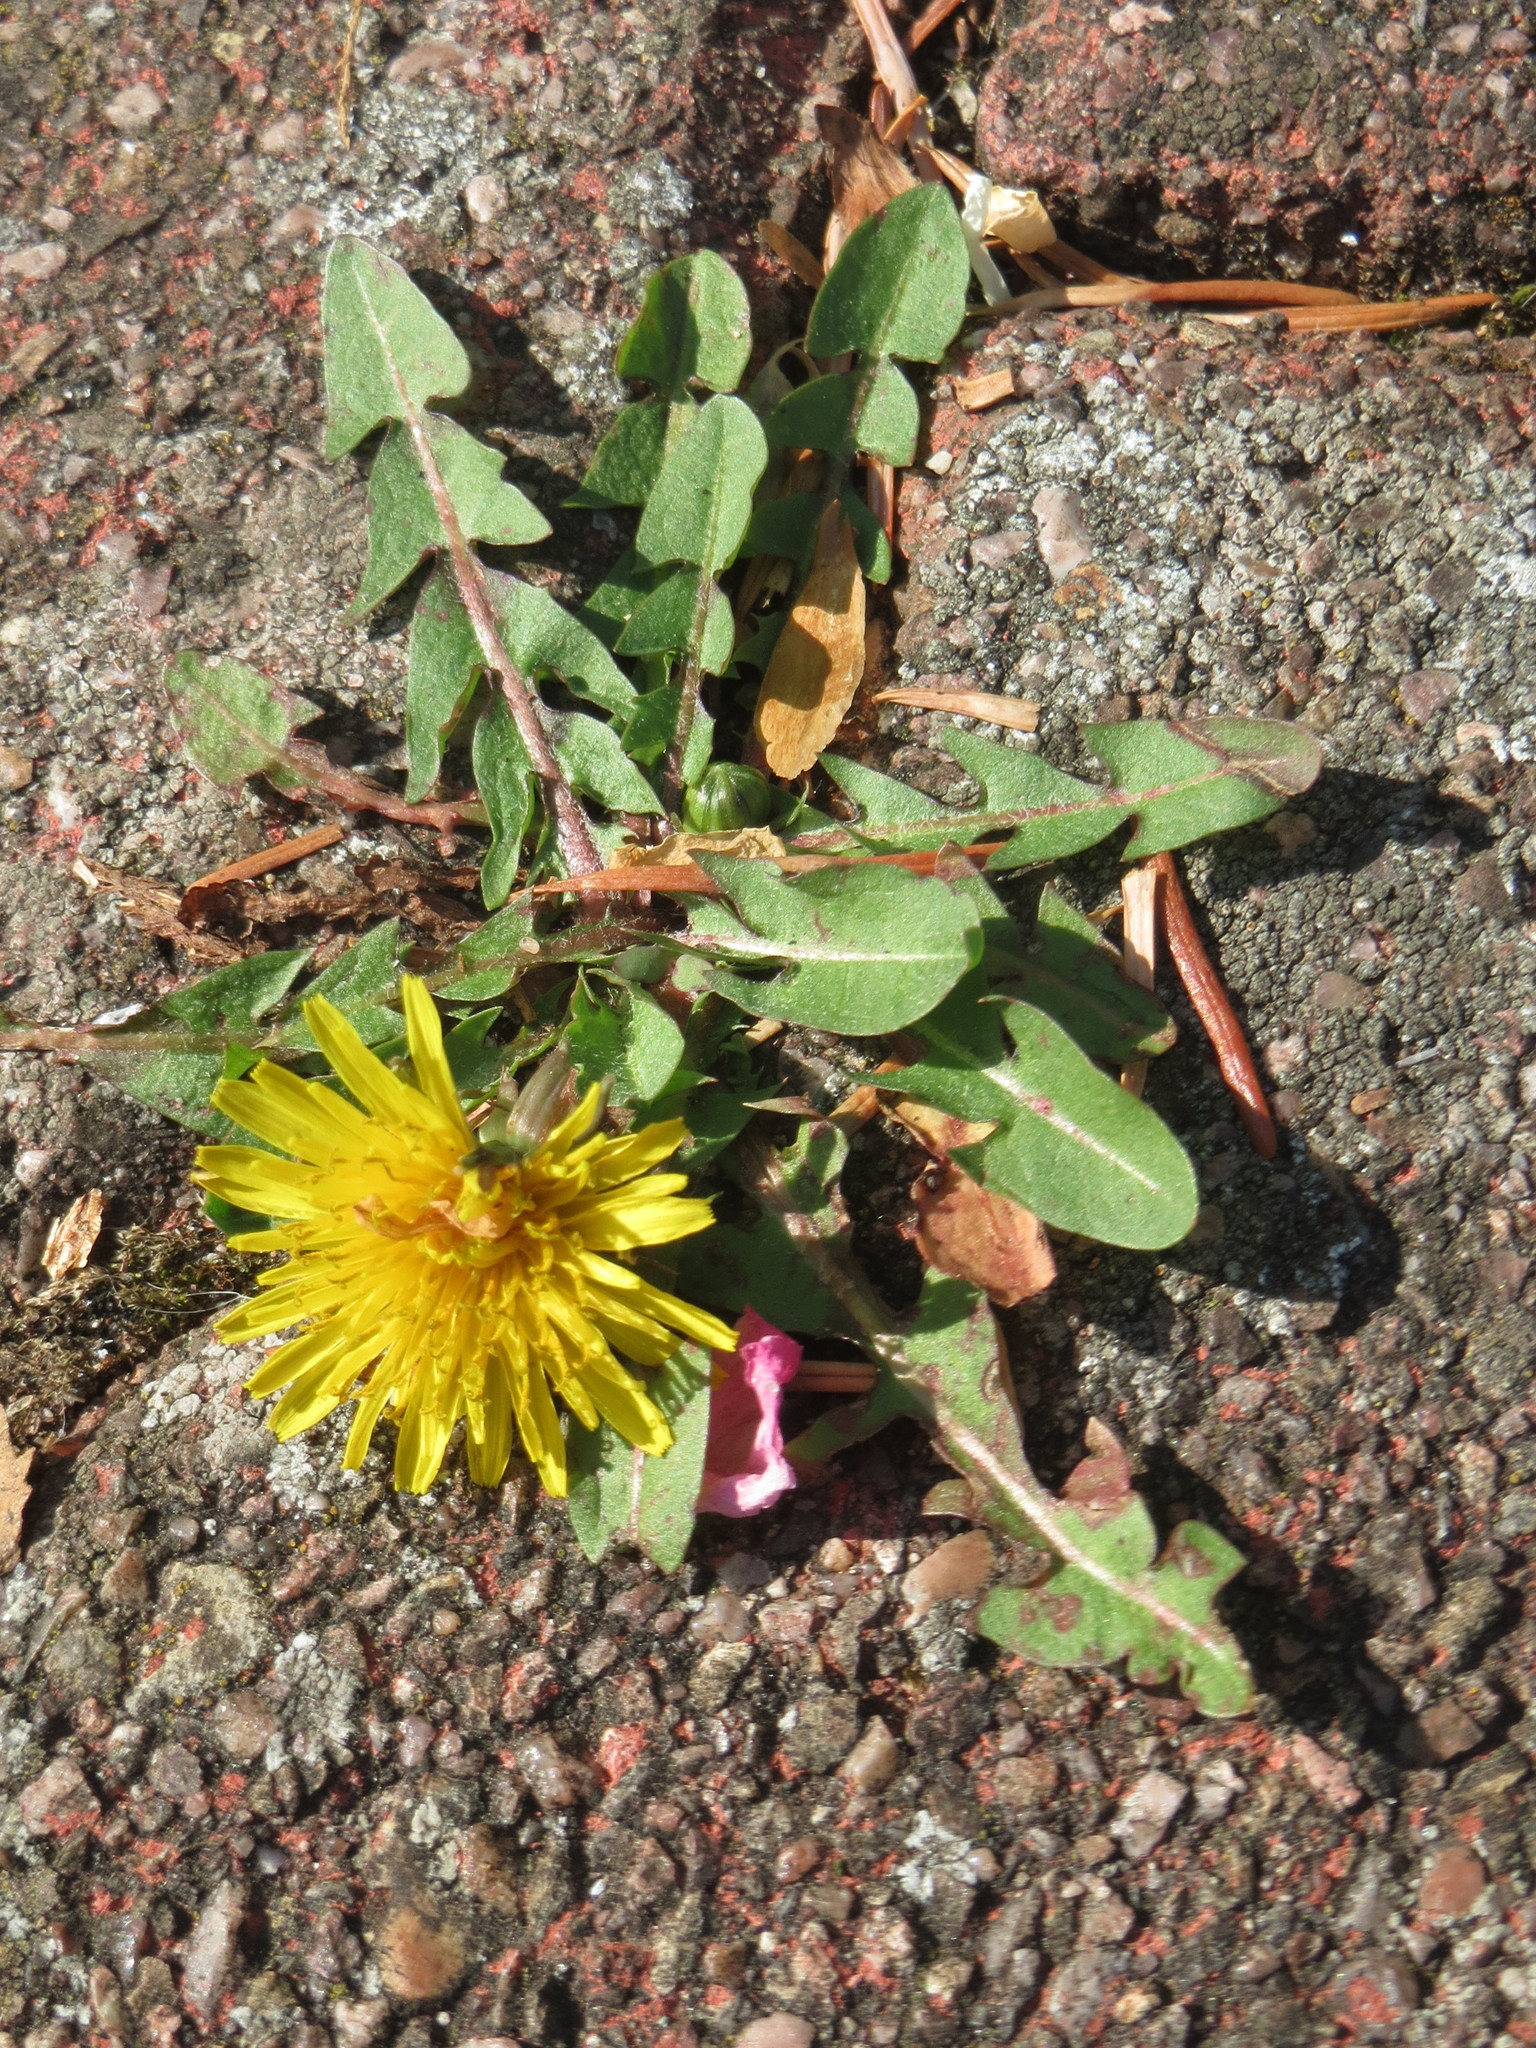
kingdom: Plantae
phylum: Tracheophyta
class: Magnoliopsida
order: Asterales
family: Asteraceae
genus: Taraxacum
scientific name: Taraxacum officinale
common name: Common dandelion
